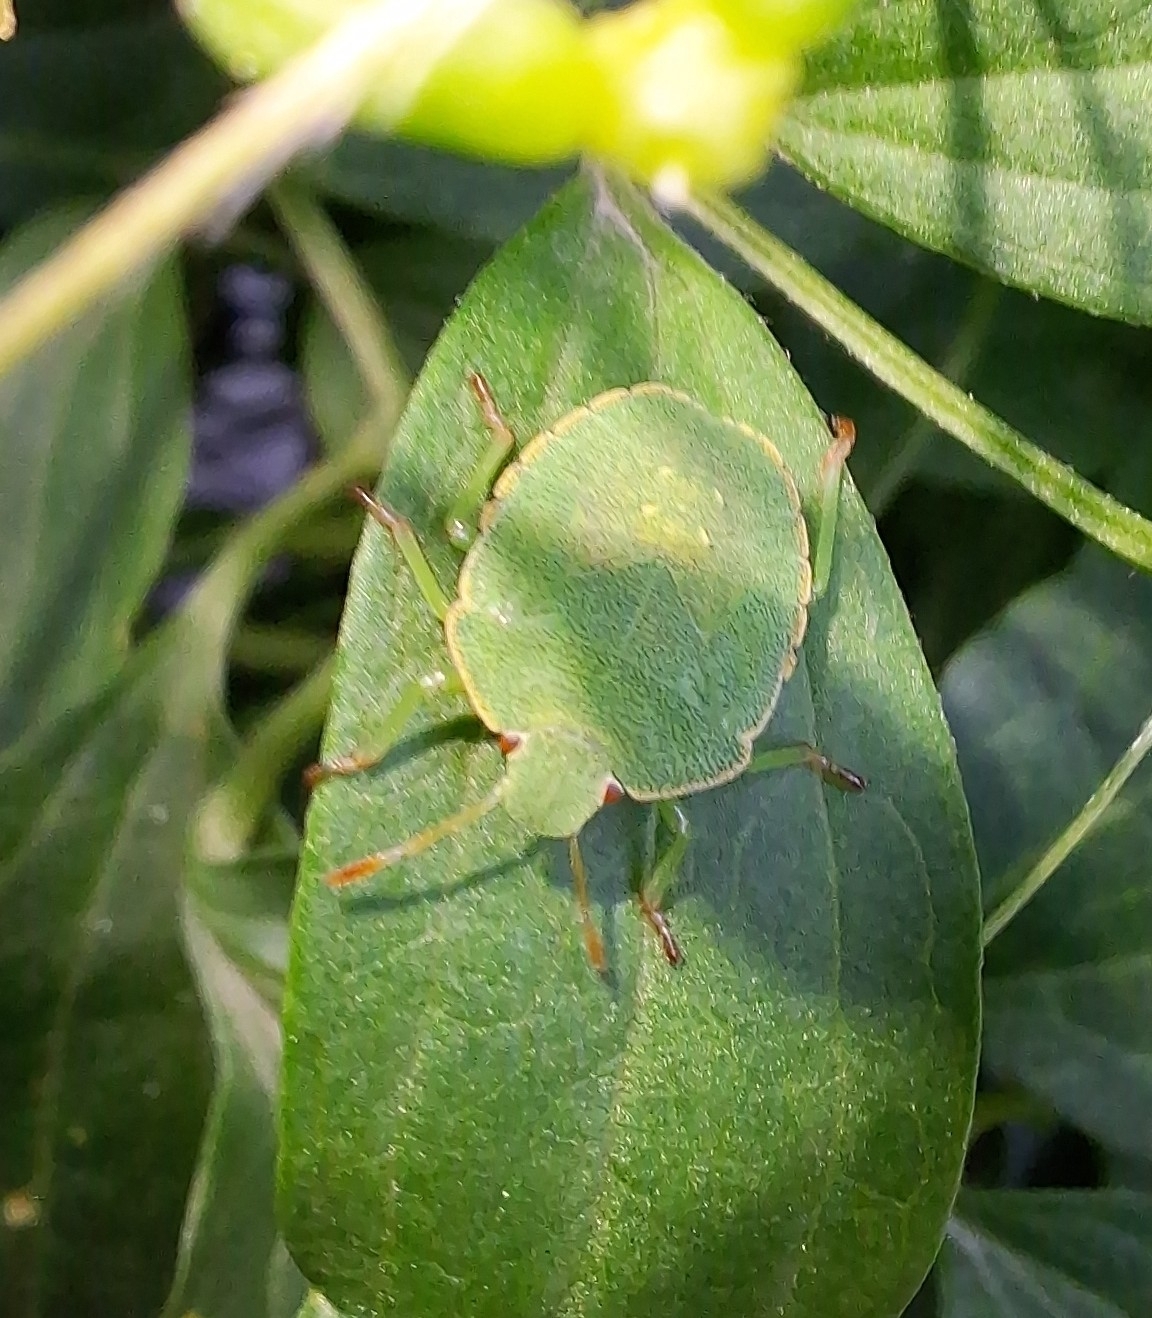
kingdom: Animalia
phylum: Arthropoda
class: Insecta
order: Hemiptera
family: Pentatomidae
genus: Palomena
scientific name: Palomena prasina
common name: Green shieldbug
